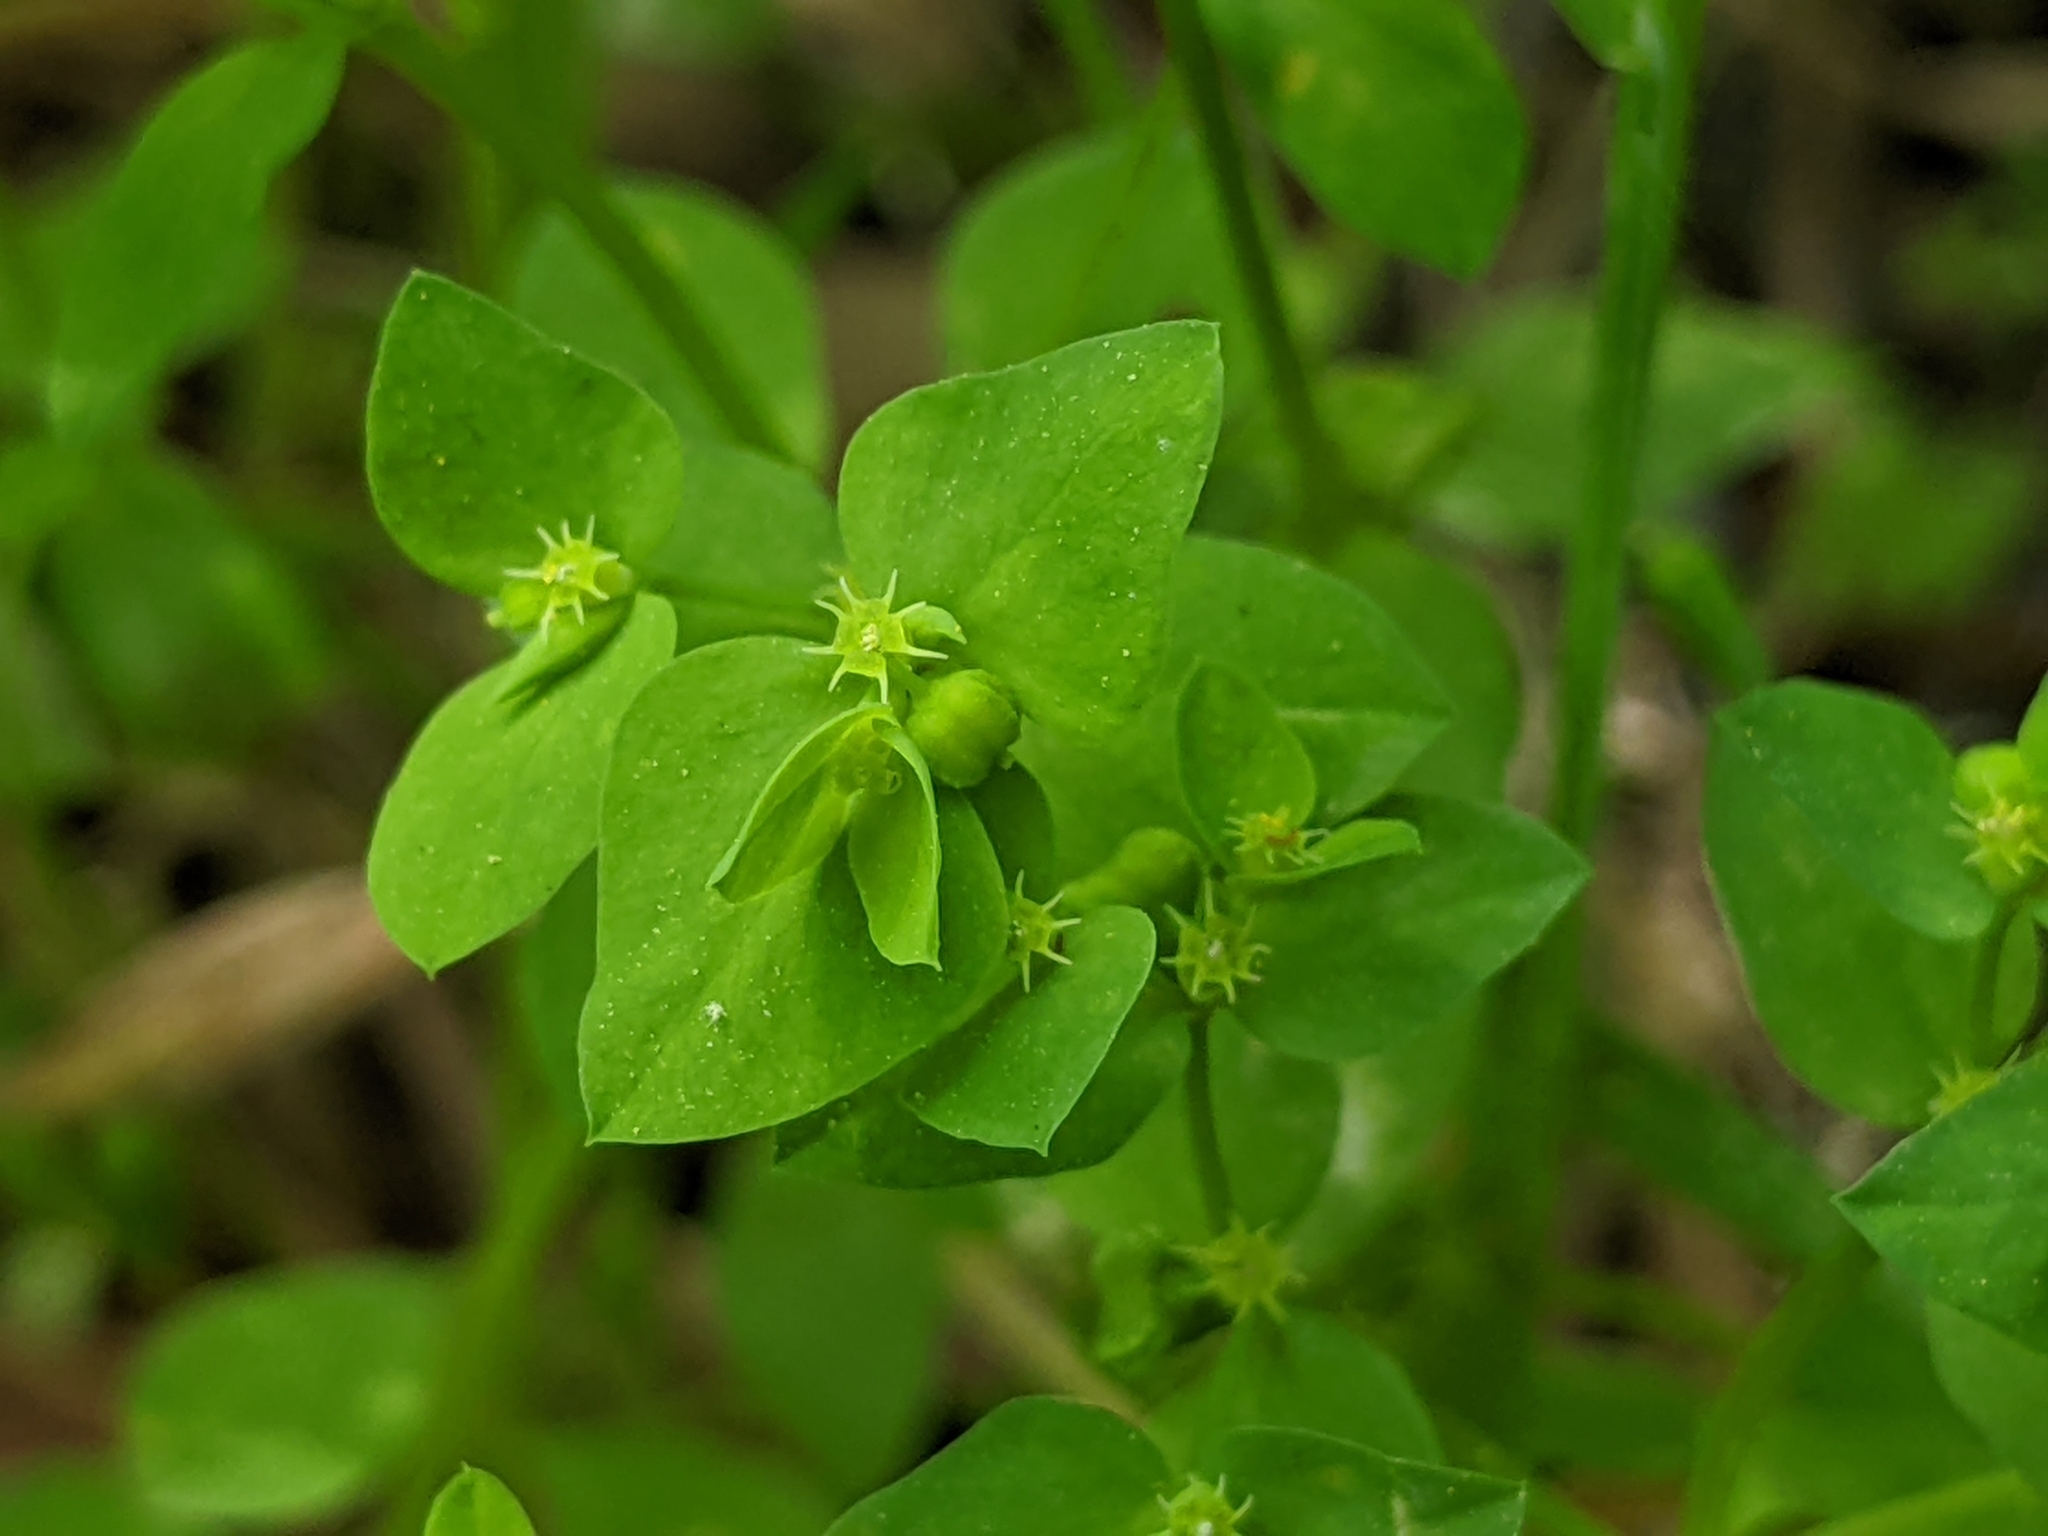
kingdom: Plantae
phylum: Tracheophyta
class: Magnoliopsida
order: Malpighiales
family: Euphorbiaceae
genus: Euphorbia
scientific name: Euphorbia peplus
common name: Petty spurge
